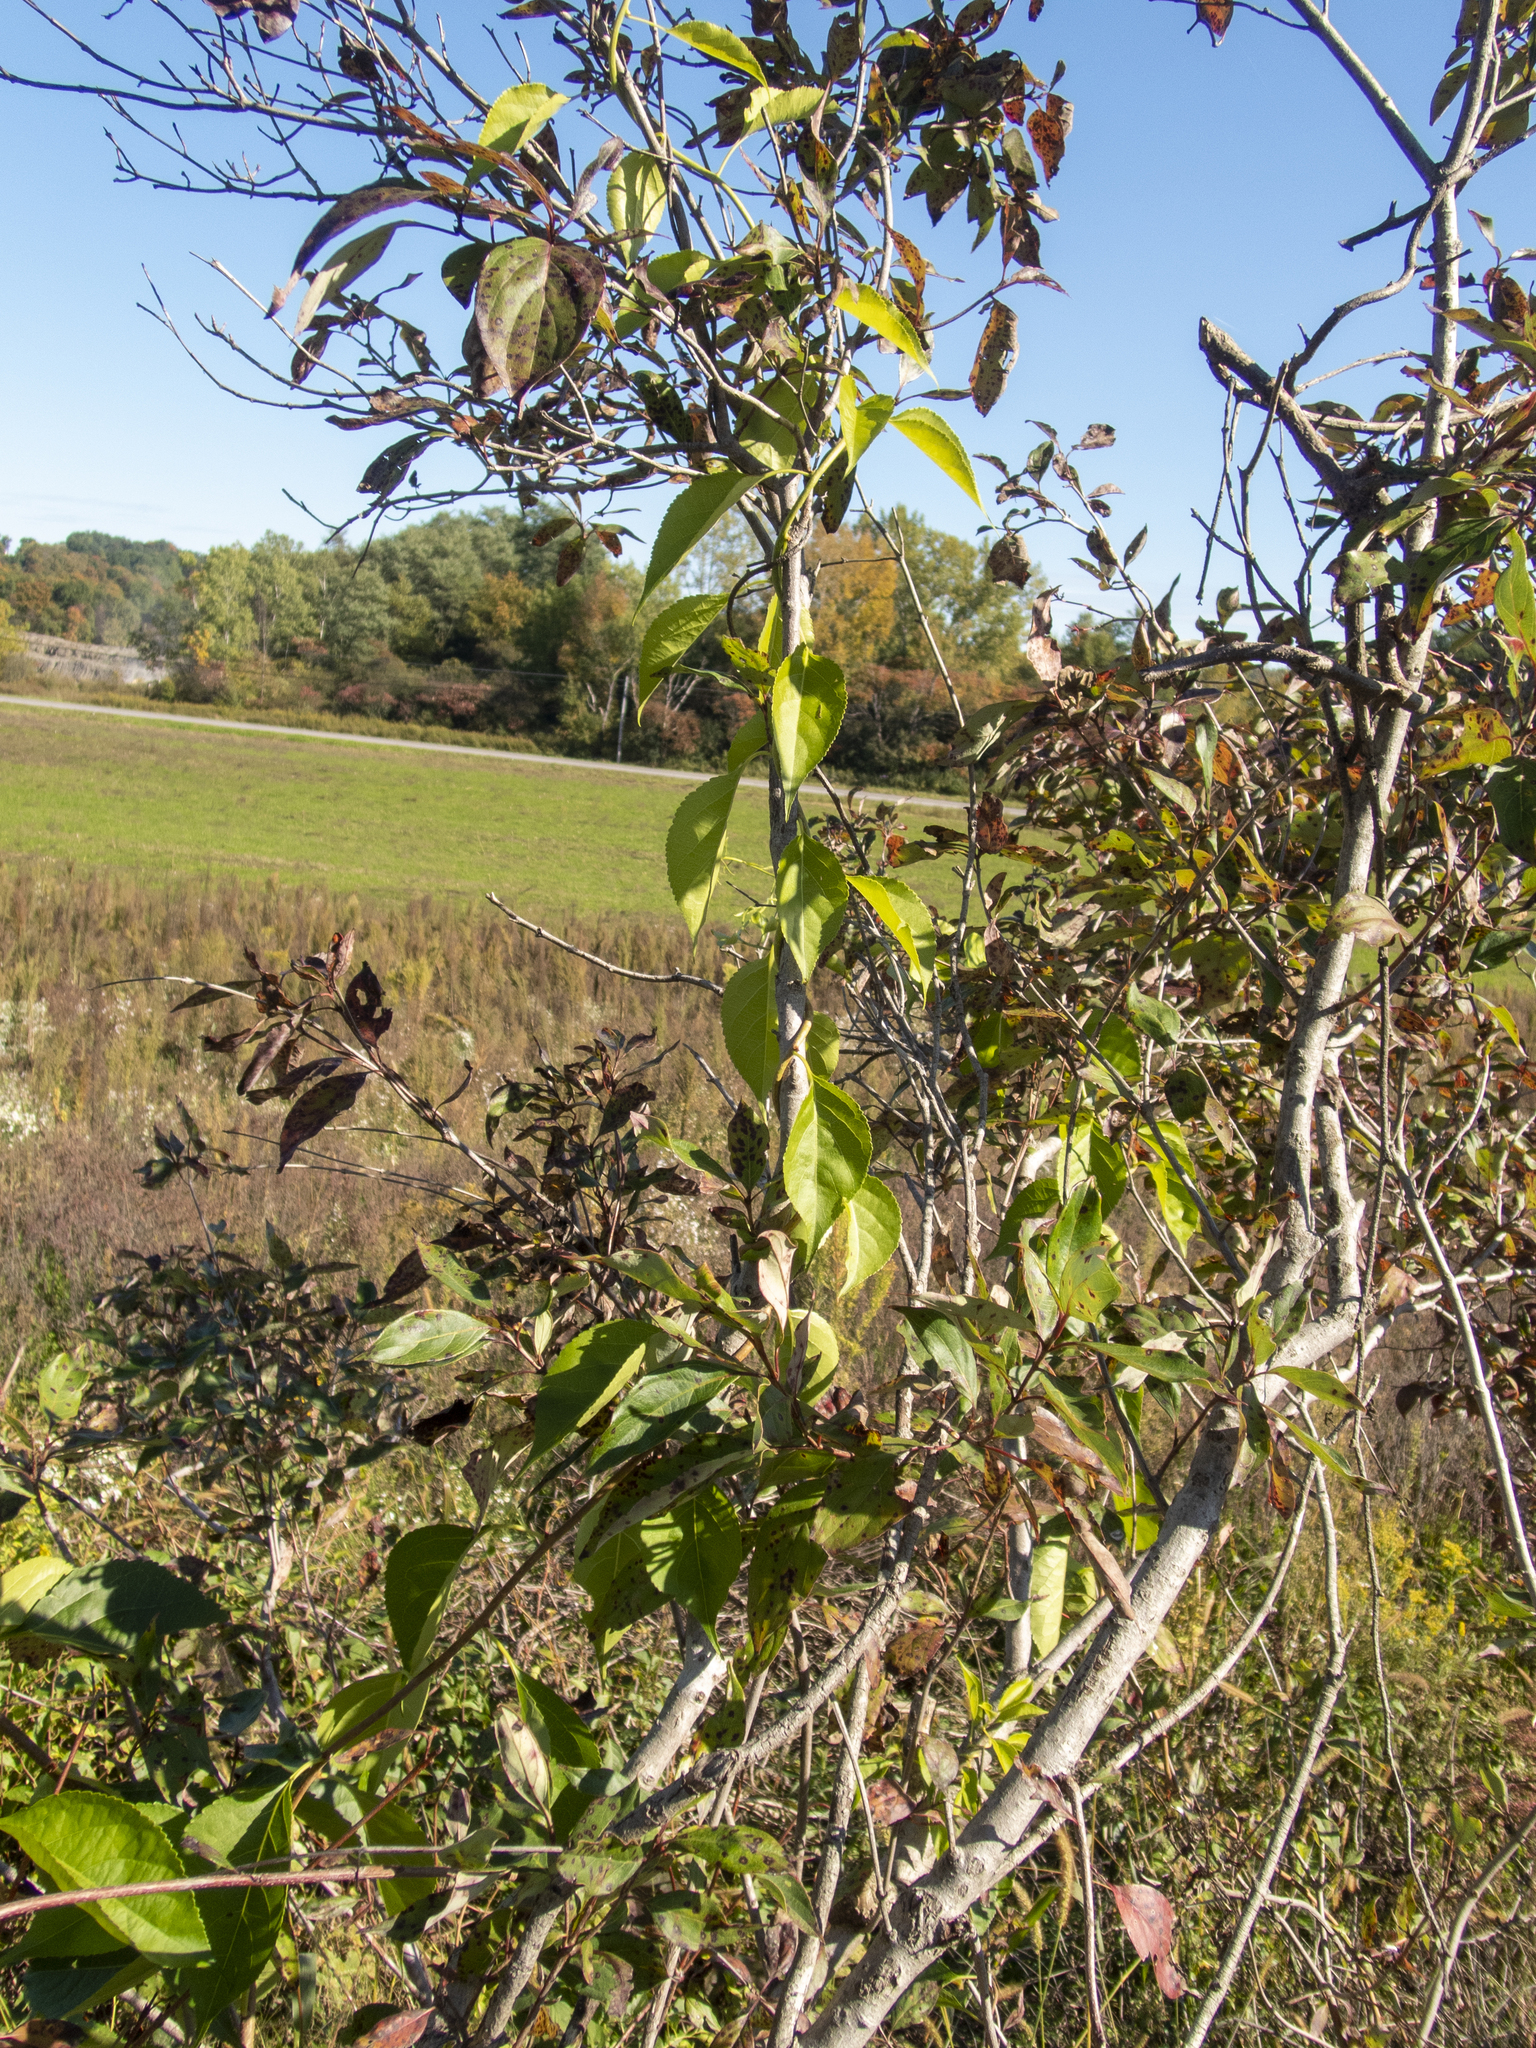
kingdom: Plantae
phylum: Tracheophyta
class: Magnoliopsida
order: Celastrales
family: Celastraceae
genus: Celastrus
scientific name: Celastrus orbiculatus
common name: Oriental bittersweet
